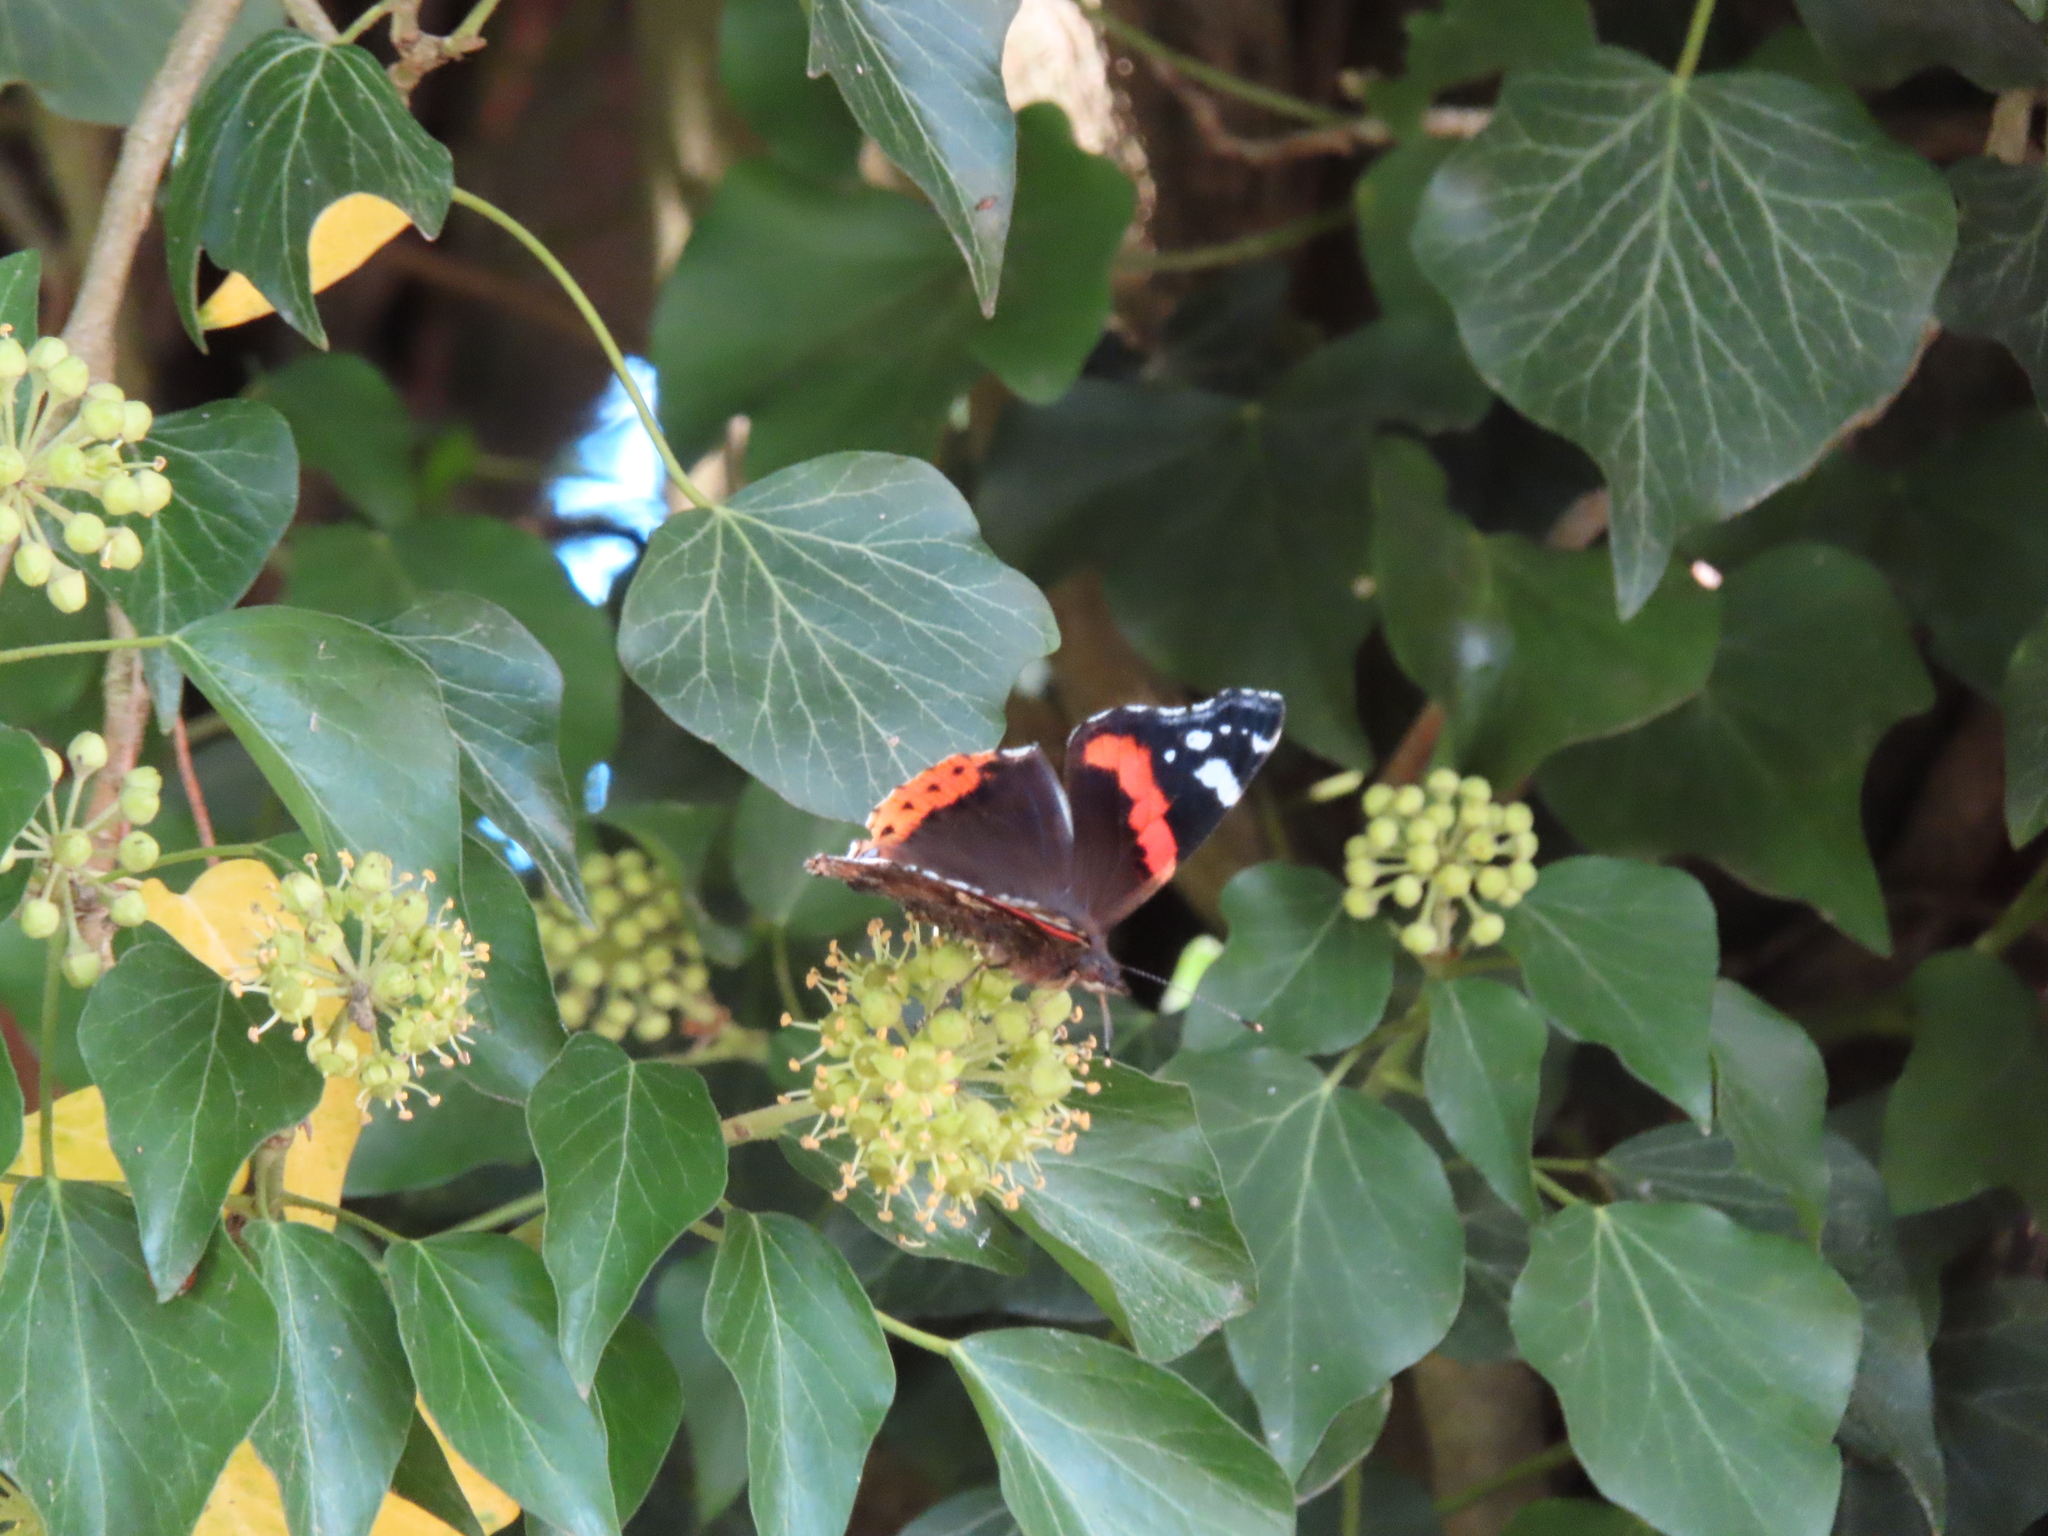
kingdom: Animalia
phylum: Arthropoda
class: Insecta
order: Lepidoptera
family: Nymphalidae
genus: Vanessa
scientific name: Vanessa atalanta
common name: Red admiral
